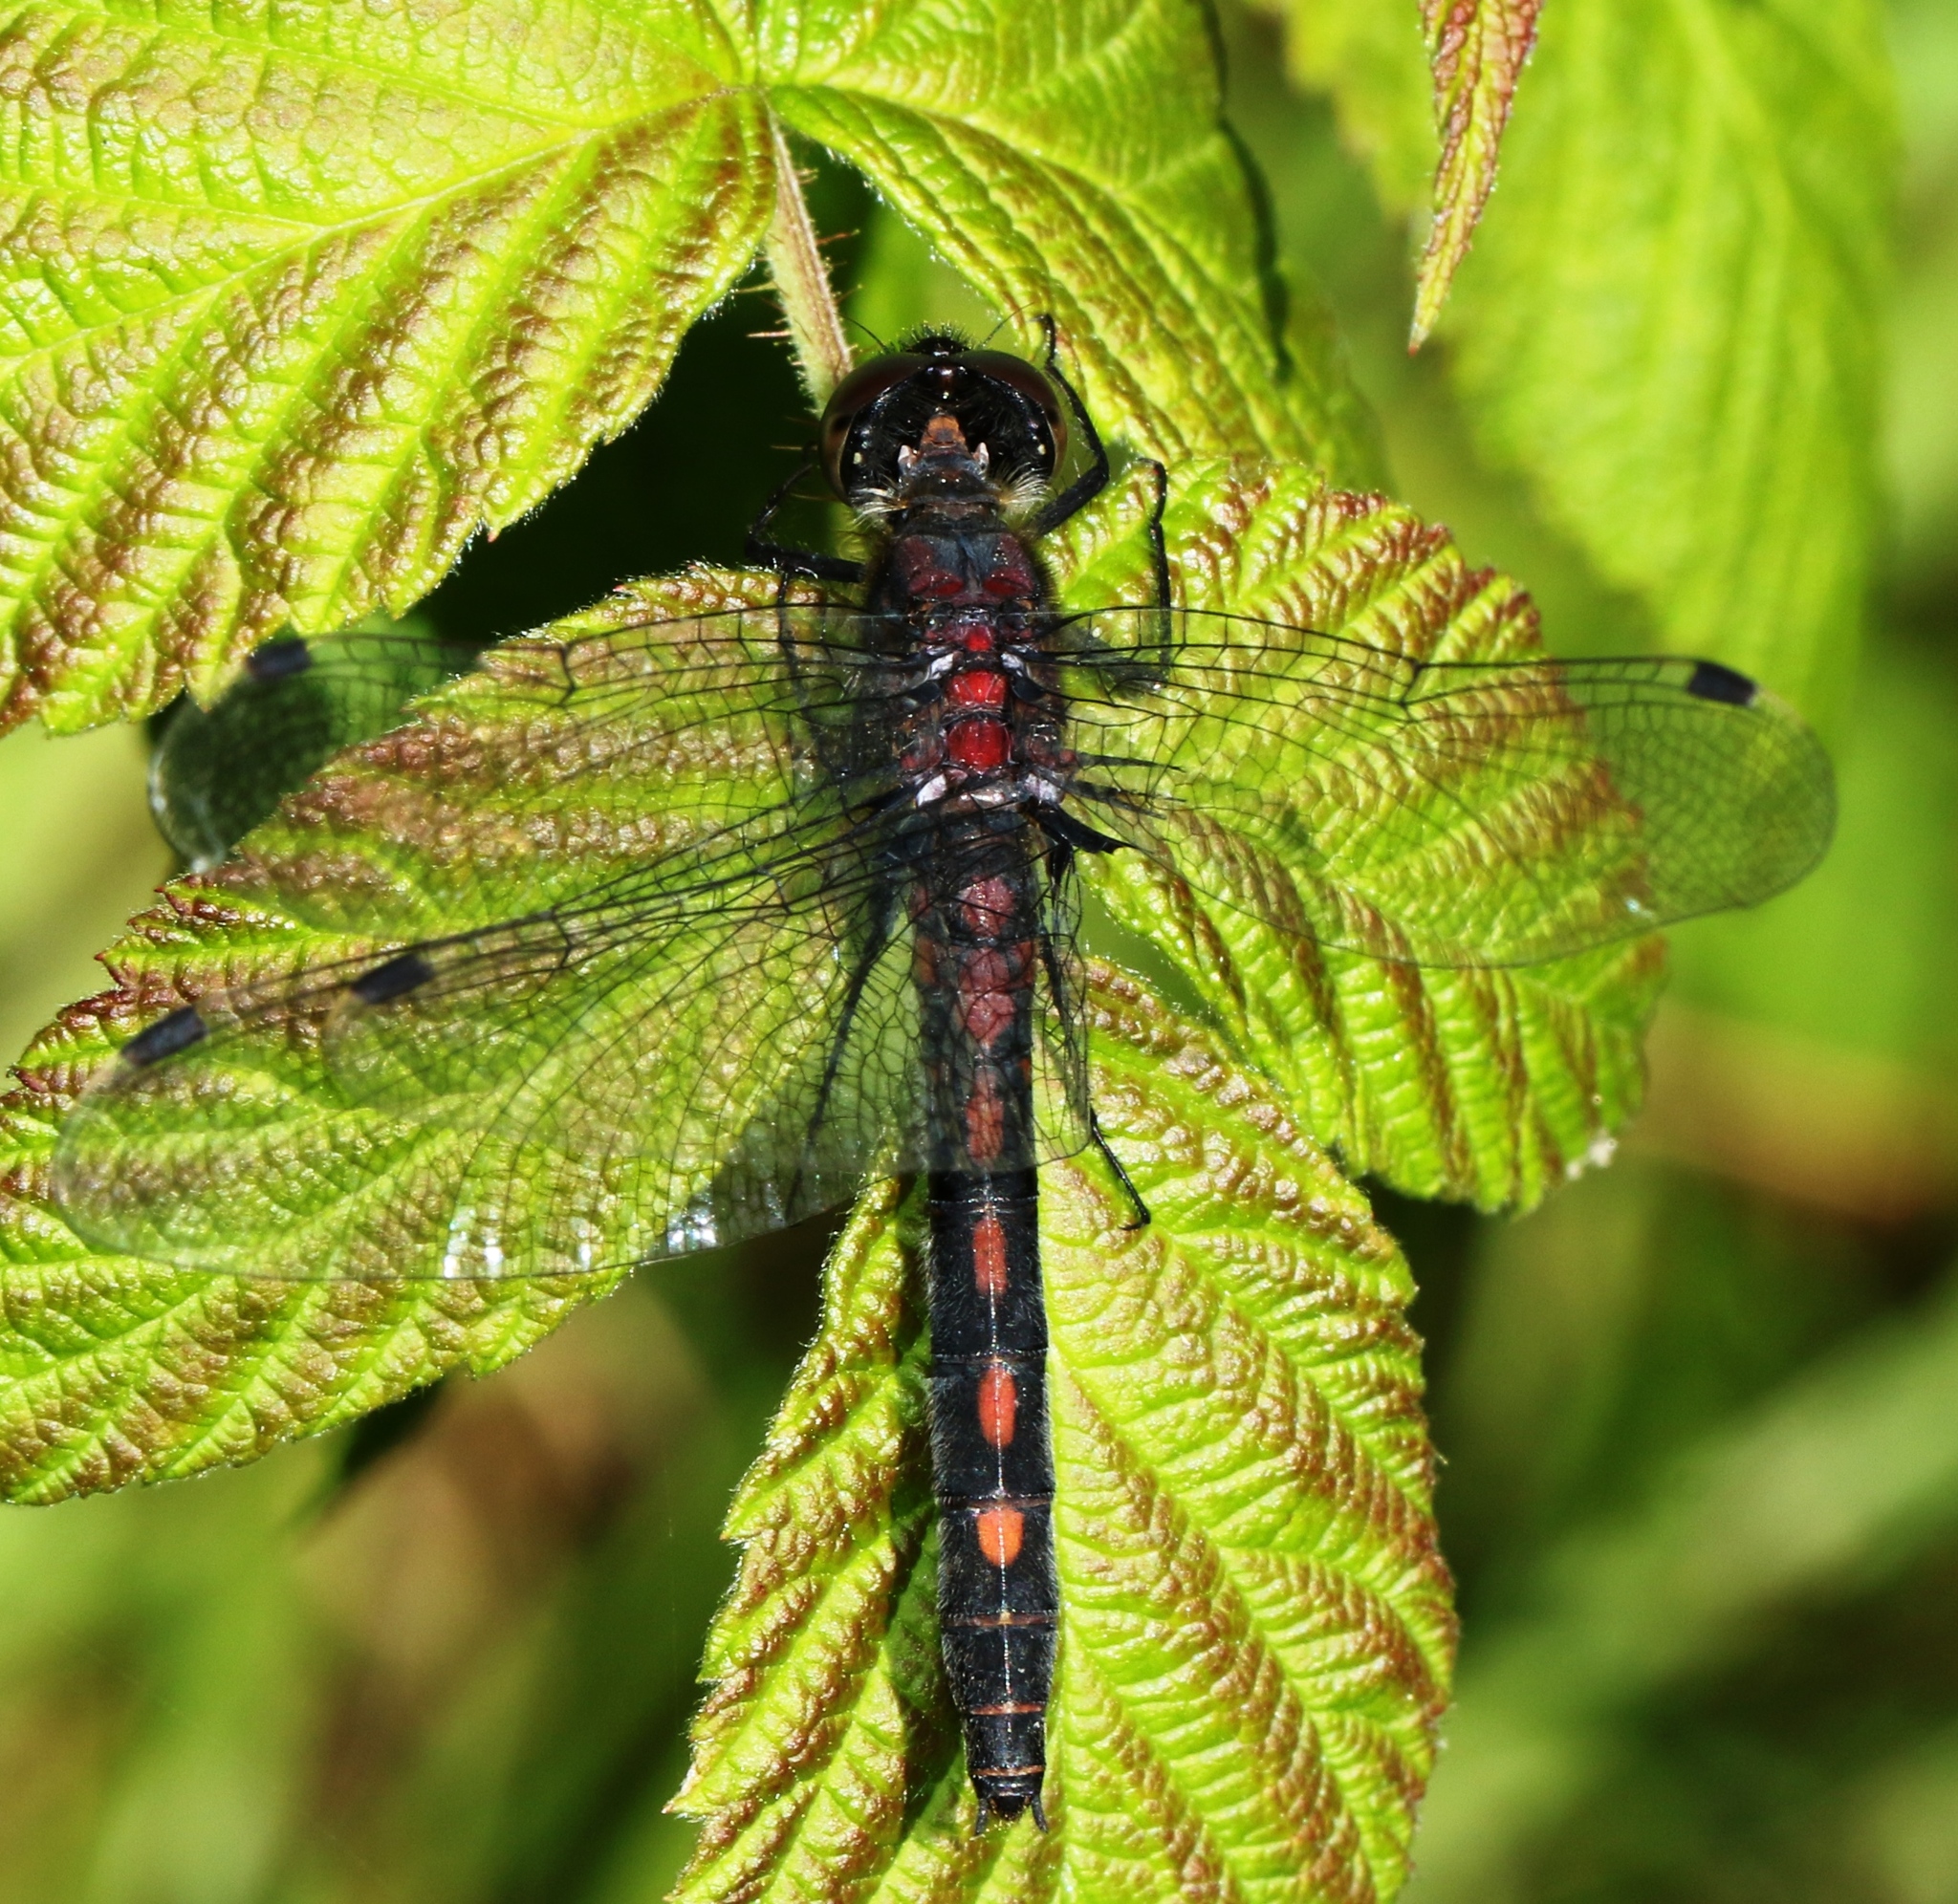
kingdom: Animalia
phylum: Arthropoda
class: Insecta
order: Odonata
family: Libellulidae
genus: Leucorrhinia
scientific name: Leucorrhinia proxima
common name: Belted whiteface
